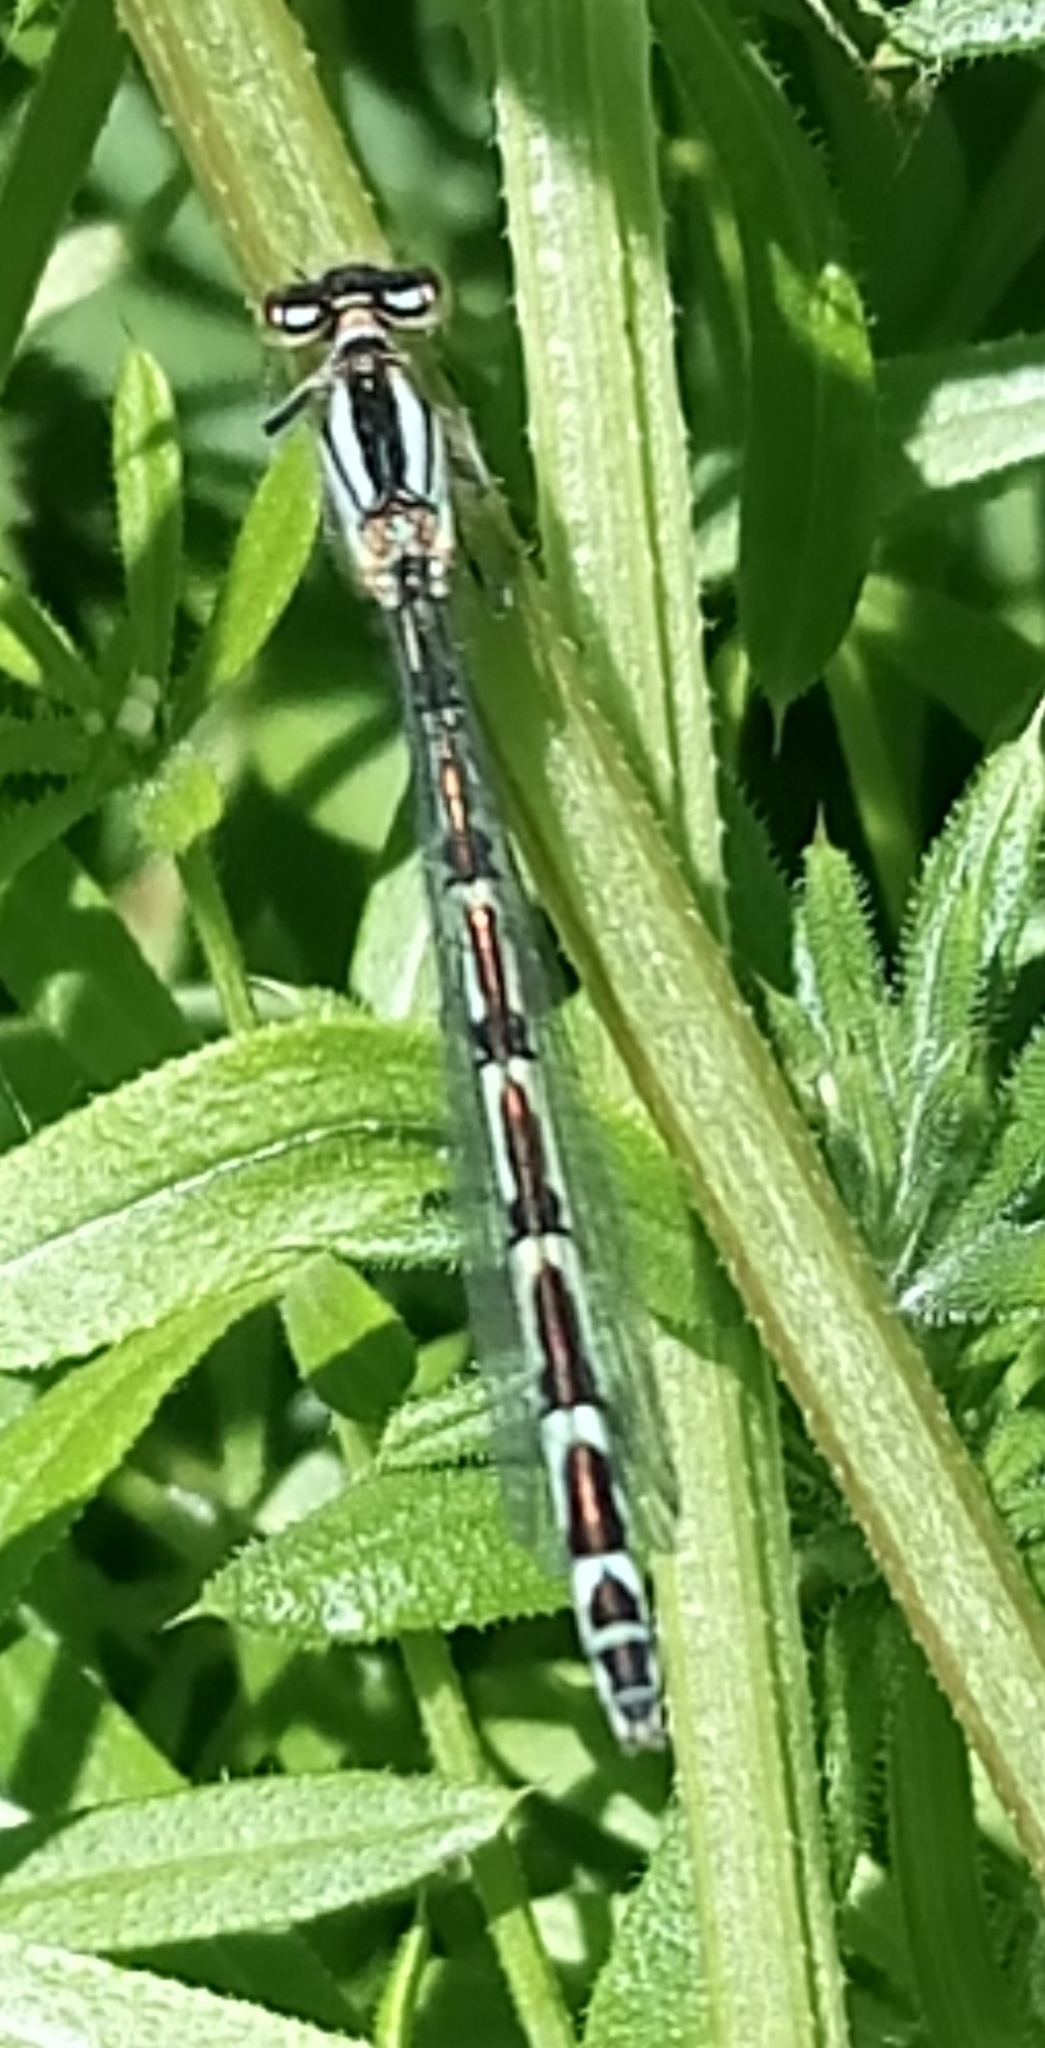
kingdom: Animalia
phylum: Arthropoda
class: Insecta
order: Odonata
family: Coenagrionidae
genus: Enallagma
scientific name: Enallagma cyathigerum
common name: Common blue damselfly
